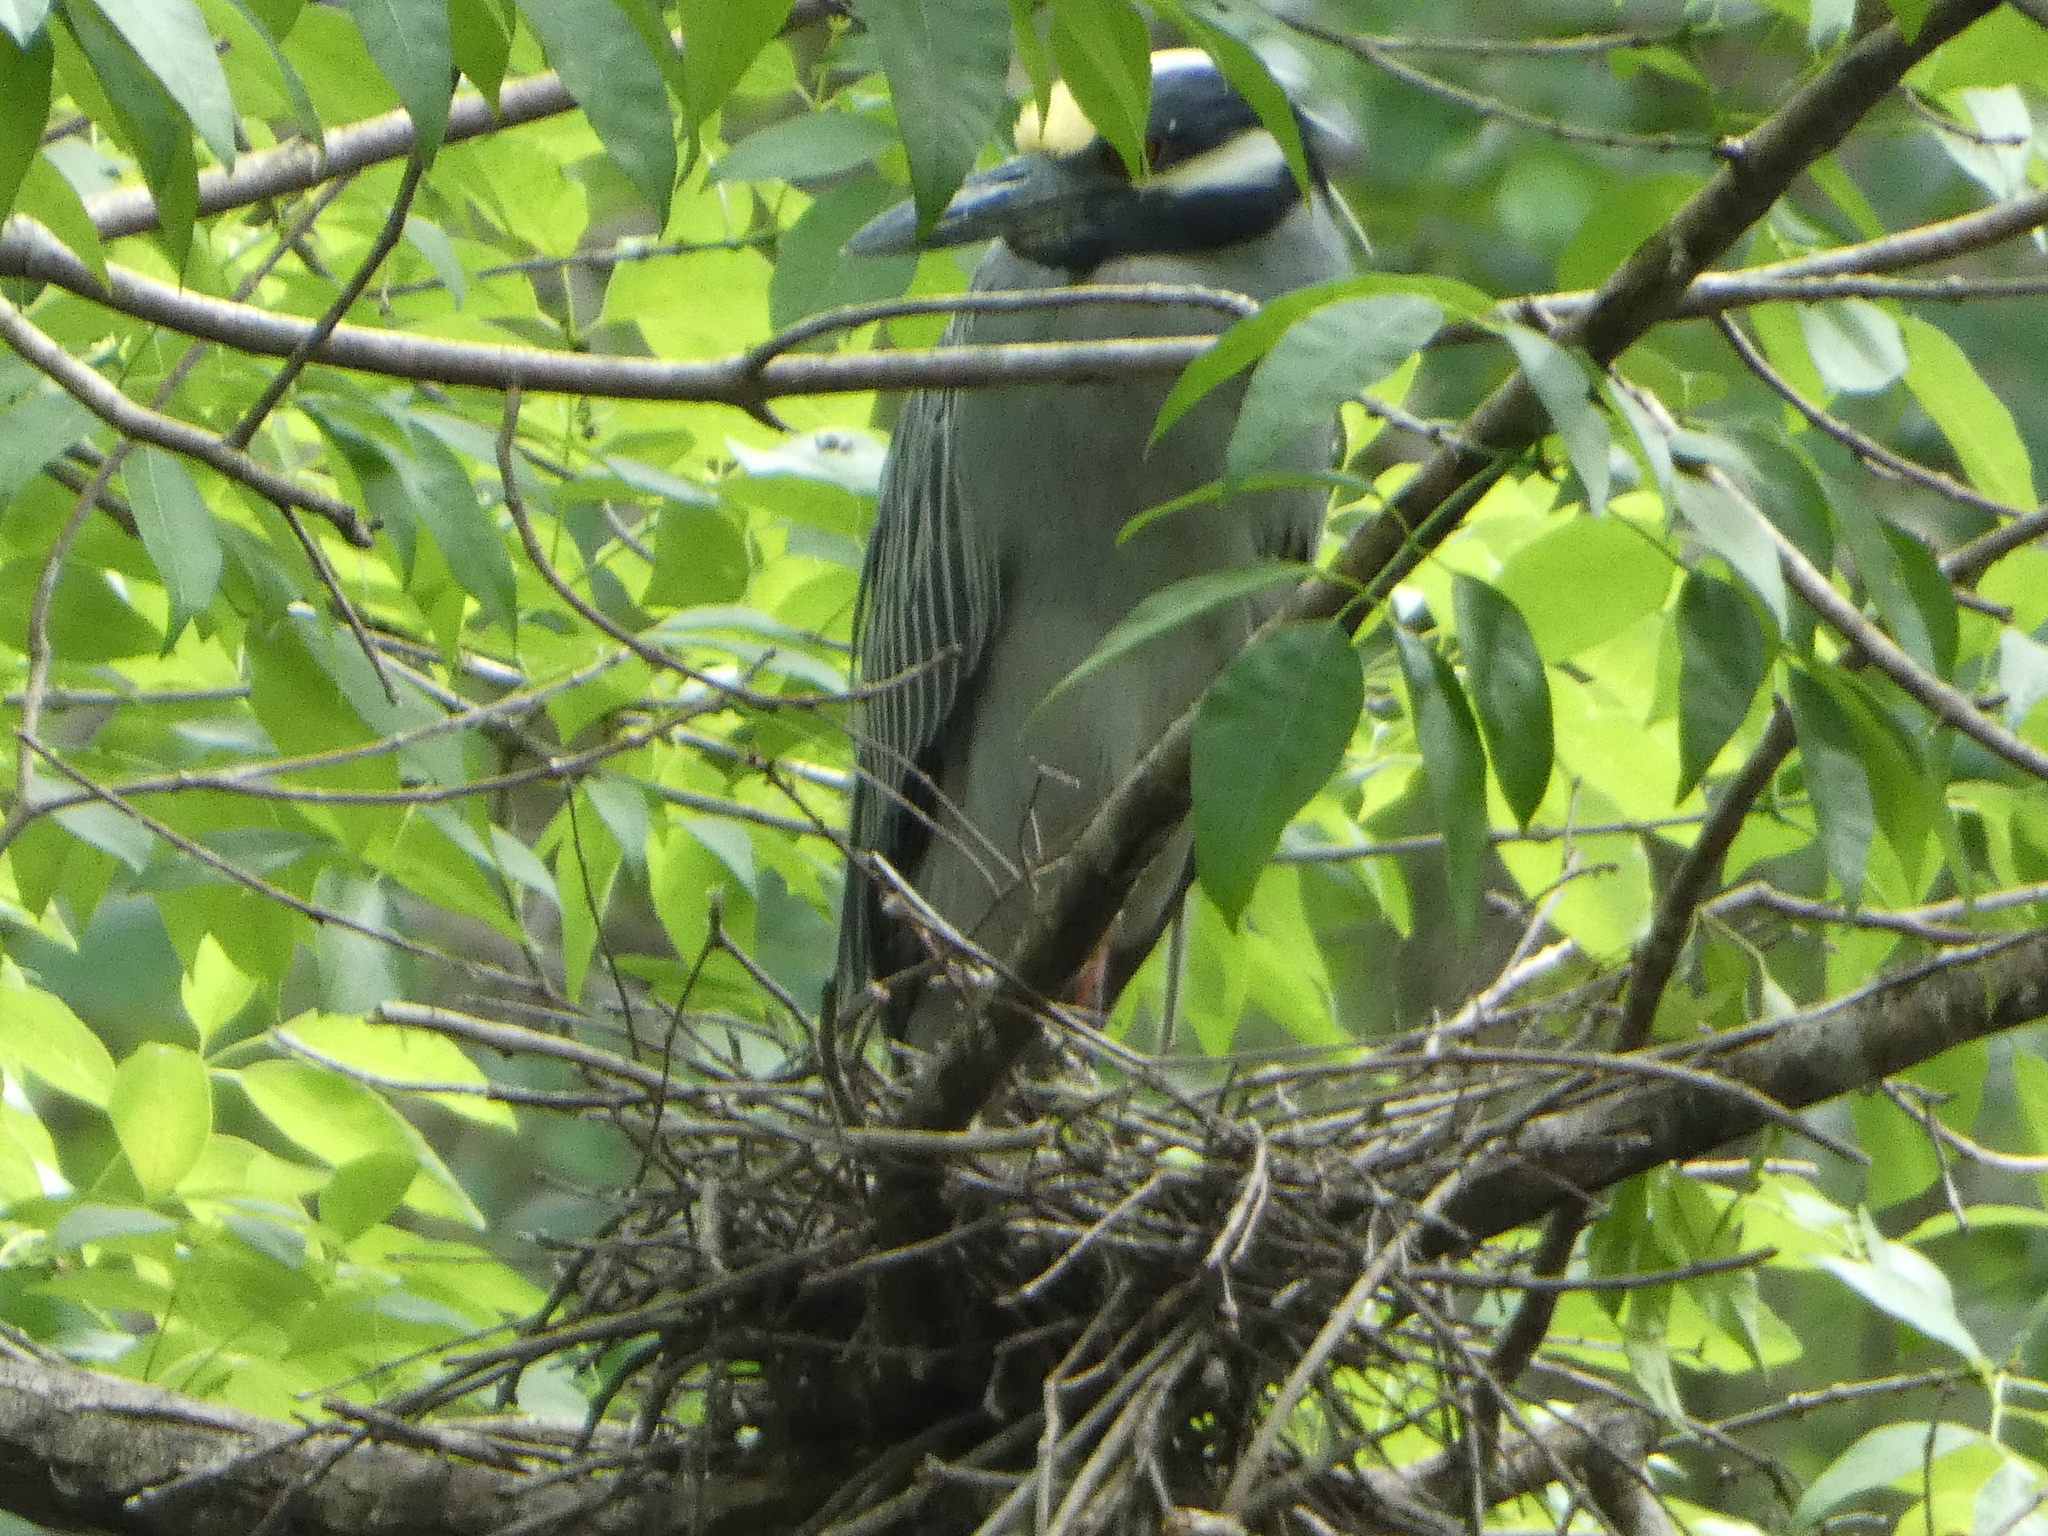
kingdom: Animalia
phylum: Chordata
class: Aves
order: Pelecaniformes
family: Ardeidae
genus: Nyctanassa
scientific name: Nyctanassa violacea
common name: Yellow-crowned night heron
